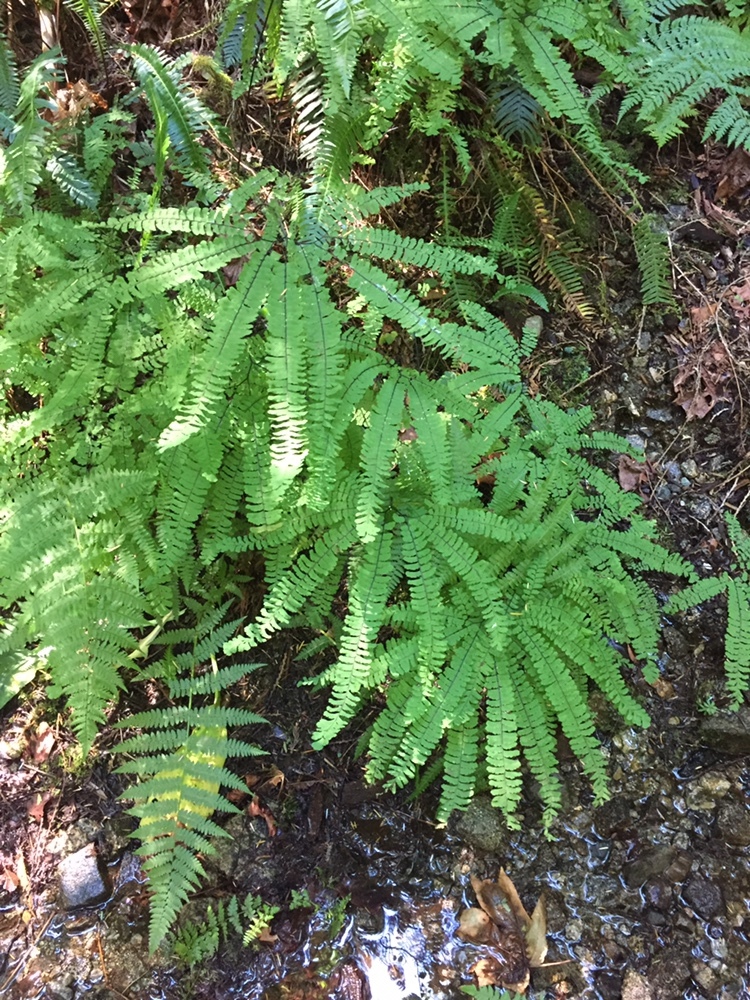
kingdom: Plantae
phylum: Tracheophyta
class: Polypodiopsida
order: Polypodiales
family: Pteridaceae
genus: Adiantum
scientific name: Adiantum aleuticum
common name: Aleutian maidenhair fern
